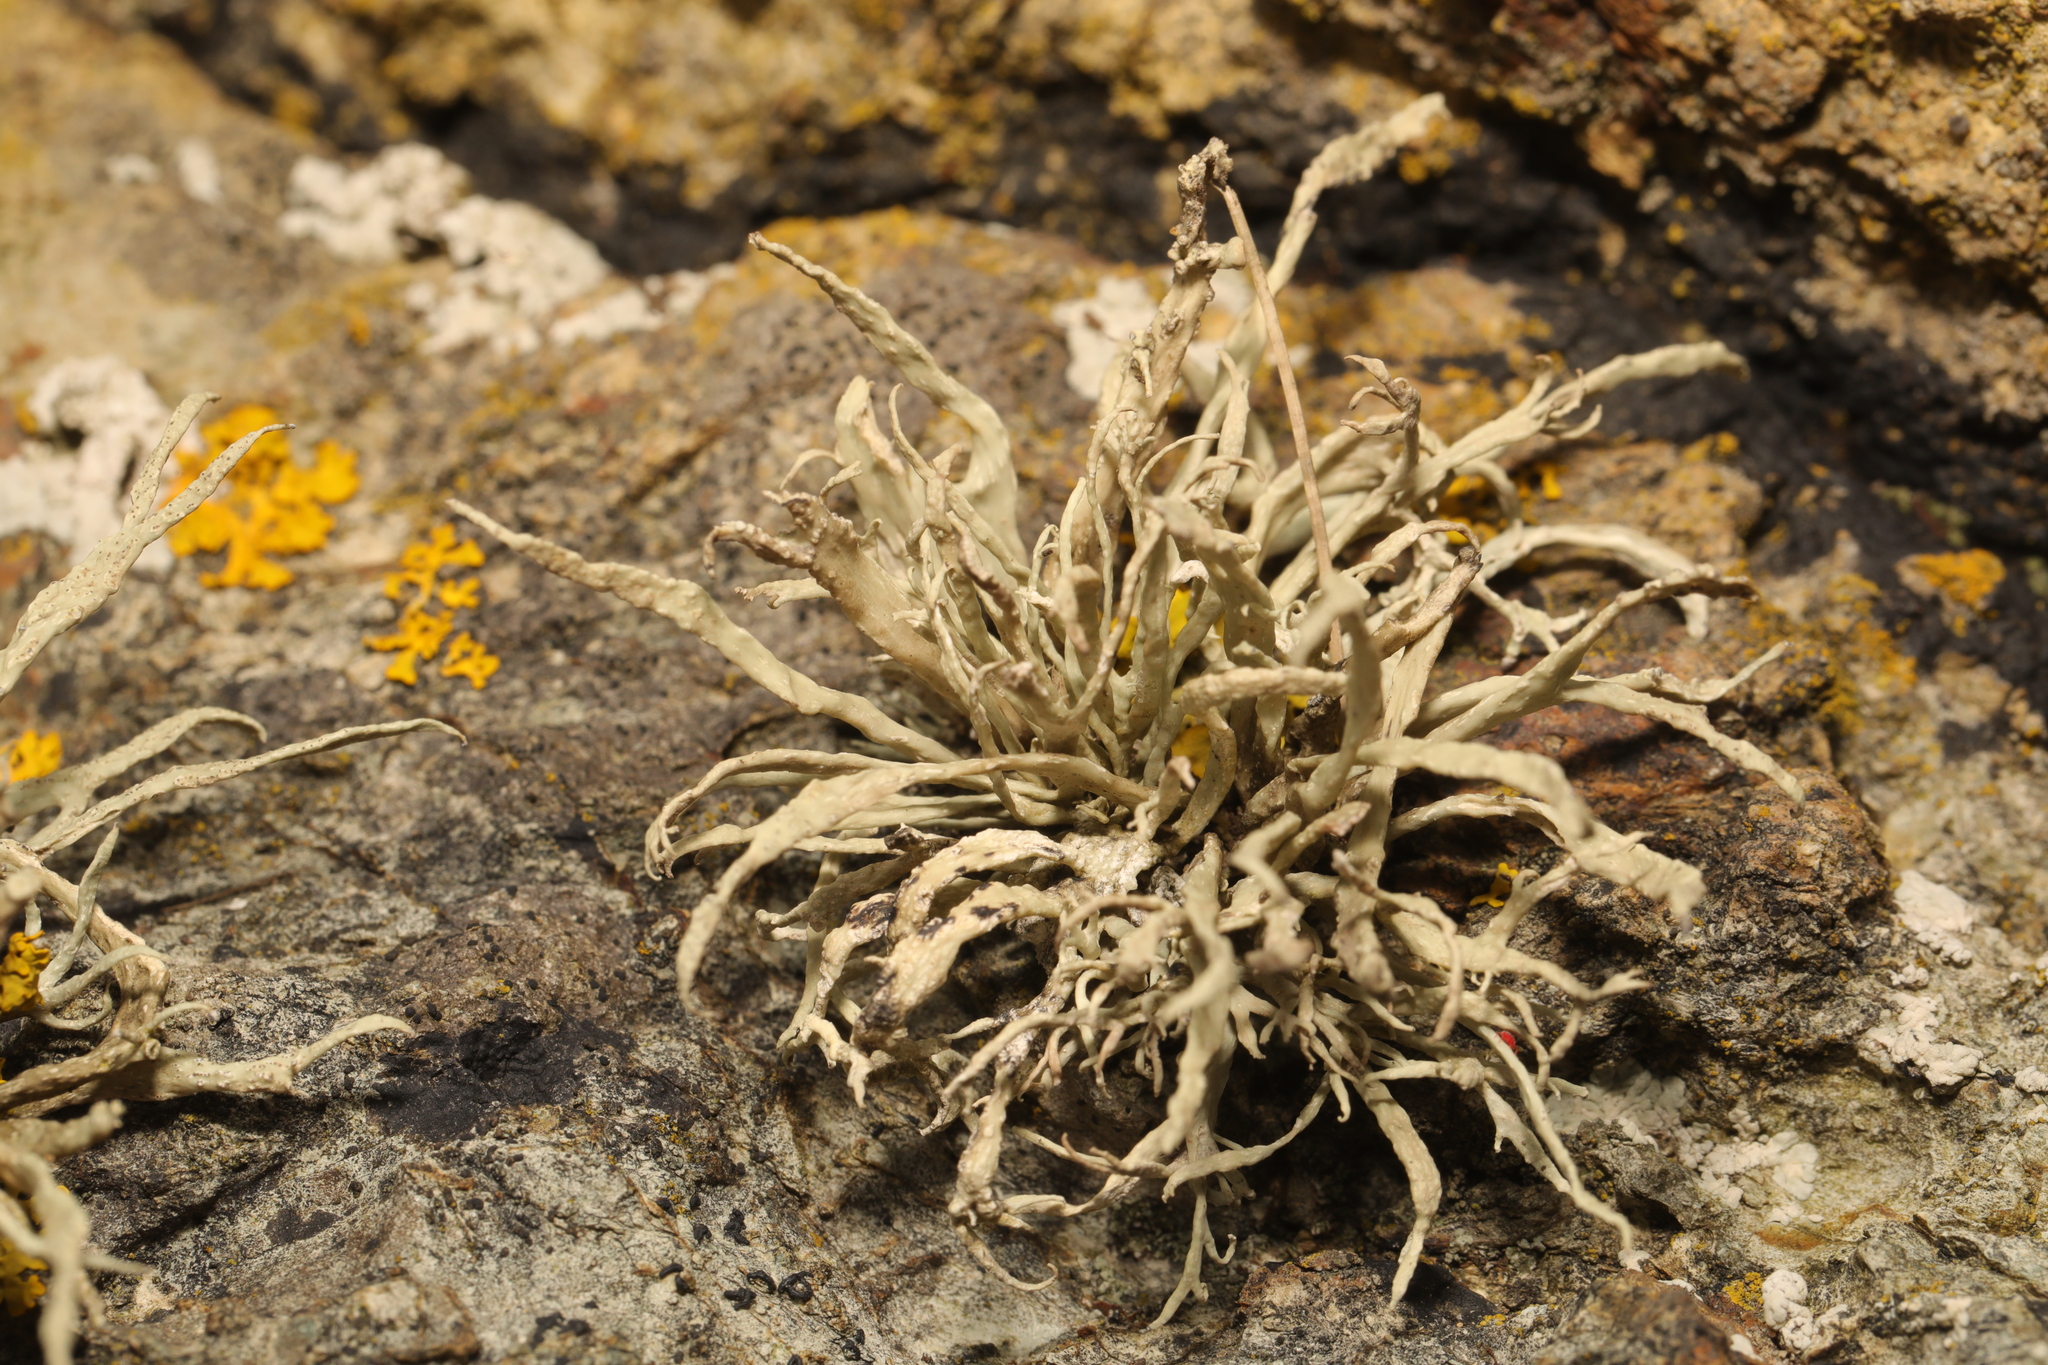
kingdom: Fungi
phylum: Ascomycota
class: Lecanoromycetes
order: Lecanorales
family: Ramalinaceae
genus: Ramalina
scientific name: Ramalina siliquosa
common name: Sea ivory
